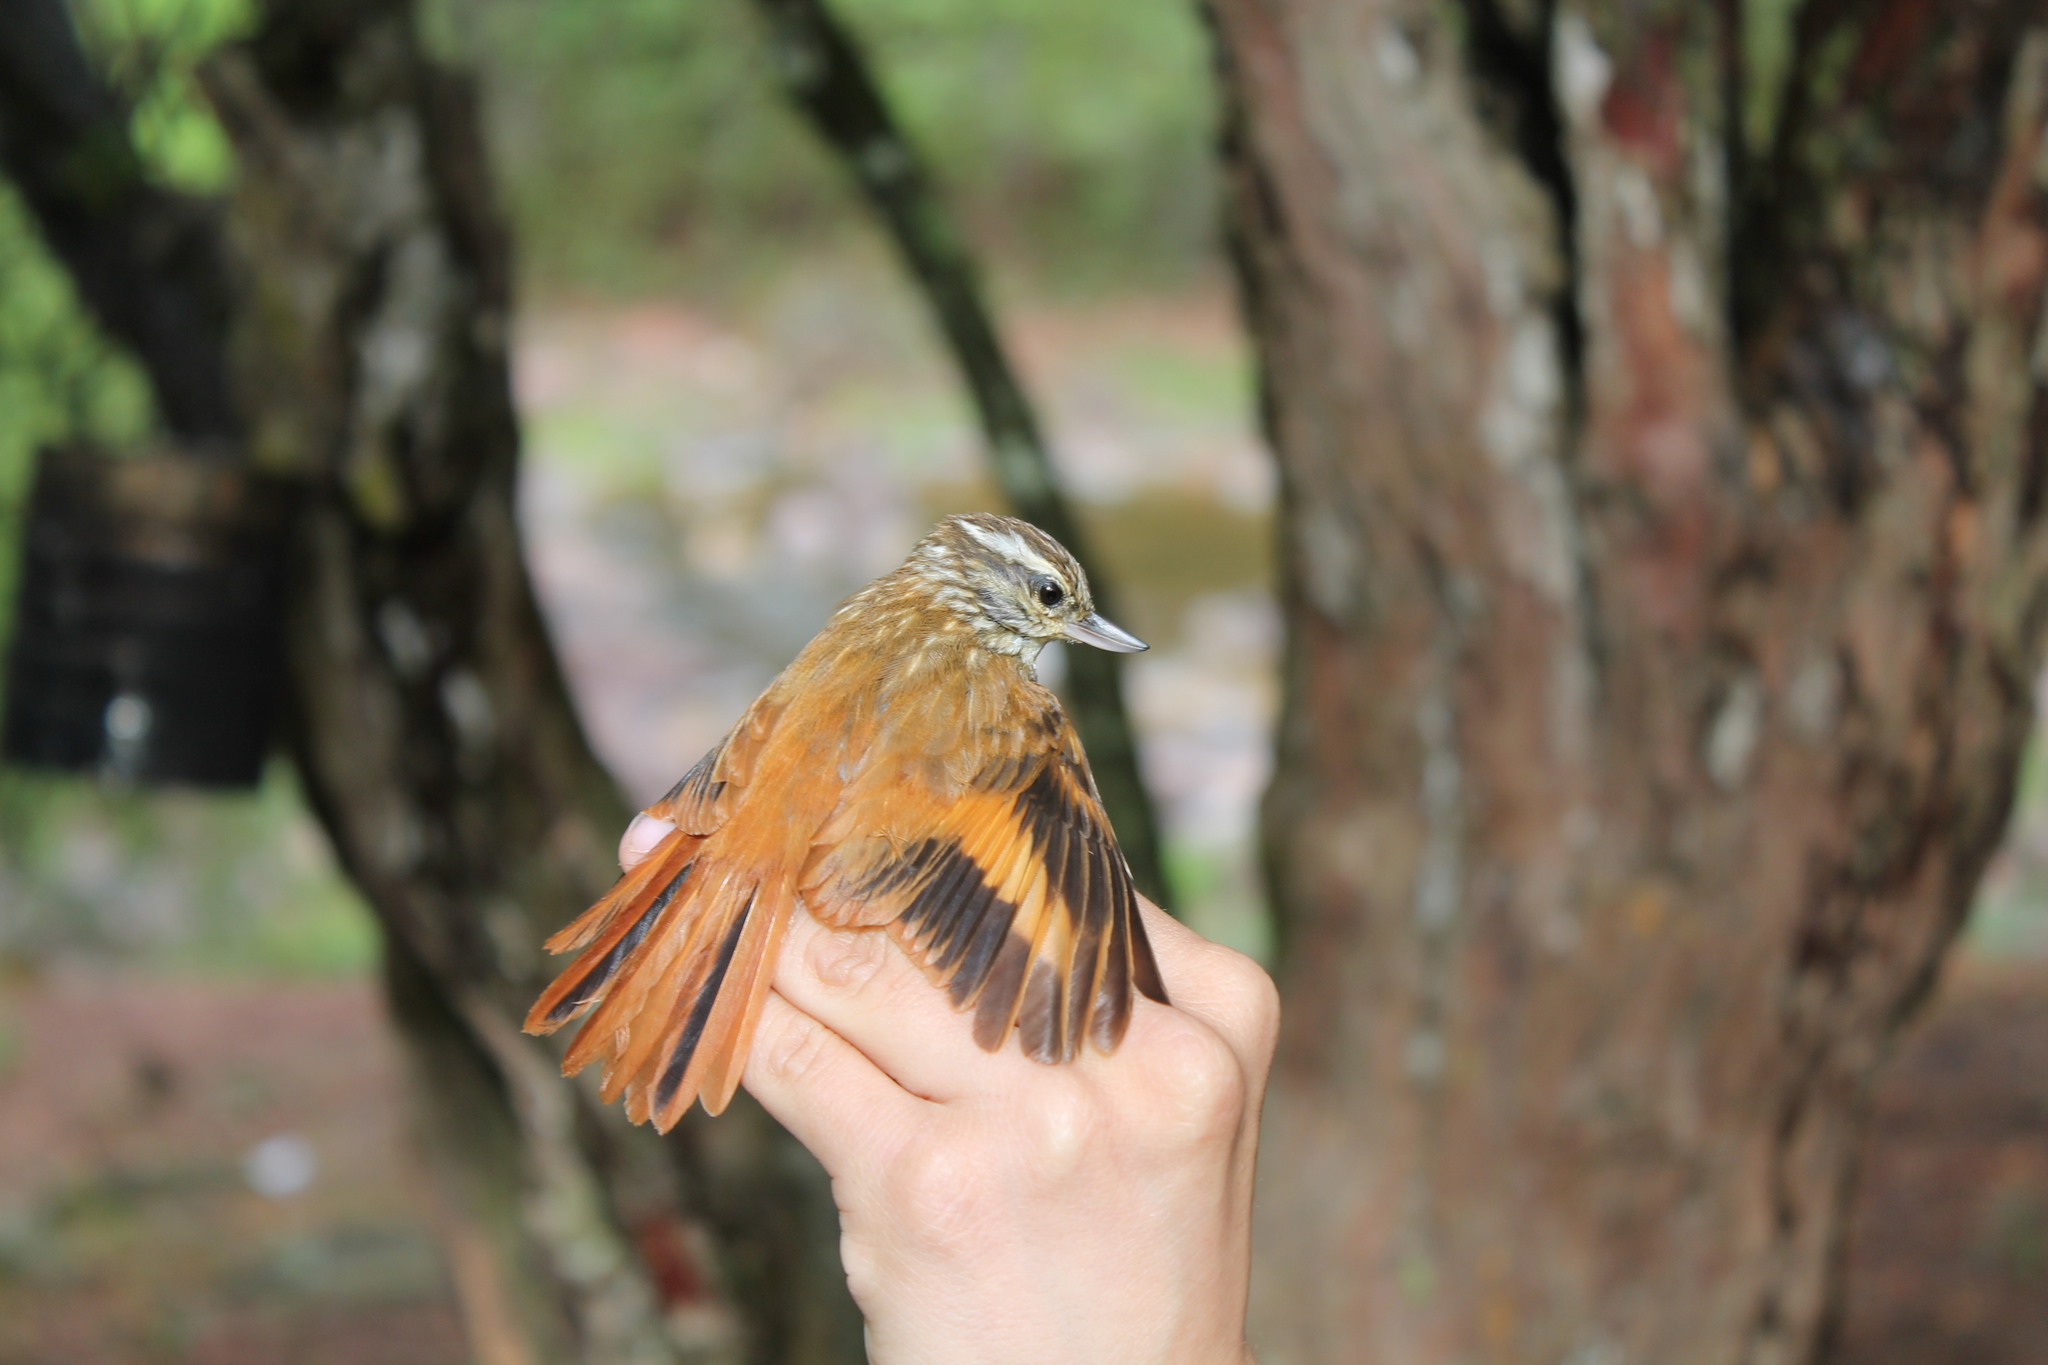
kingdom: Animalia
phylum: Chordata
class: Aves
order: Passeriformes
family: Furnariidae
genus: Xenops
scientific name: Xenops rutilans
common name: Streaked xenops
